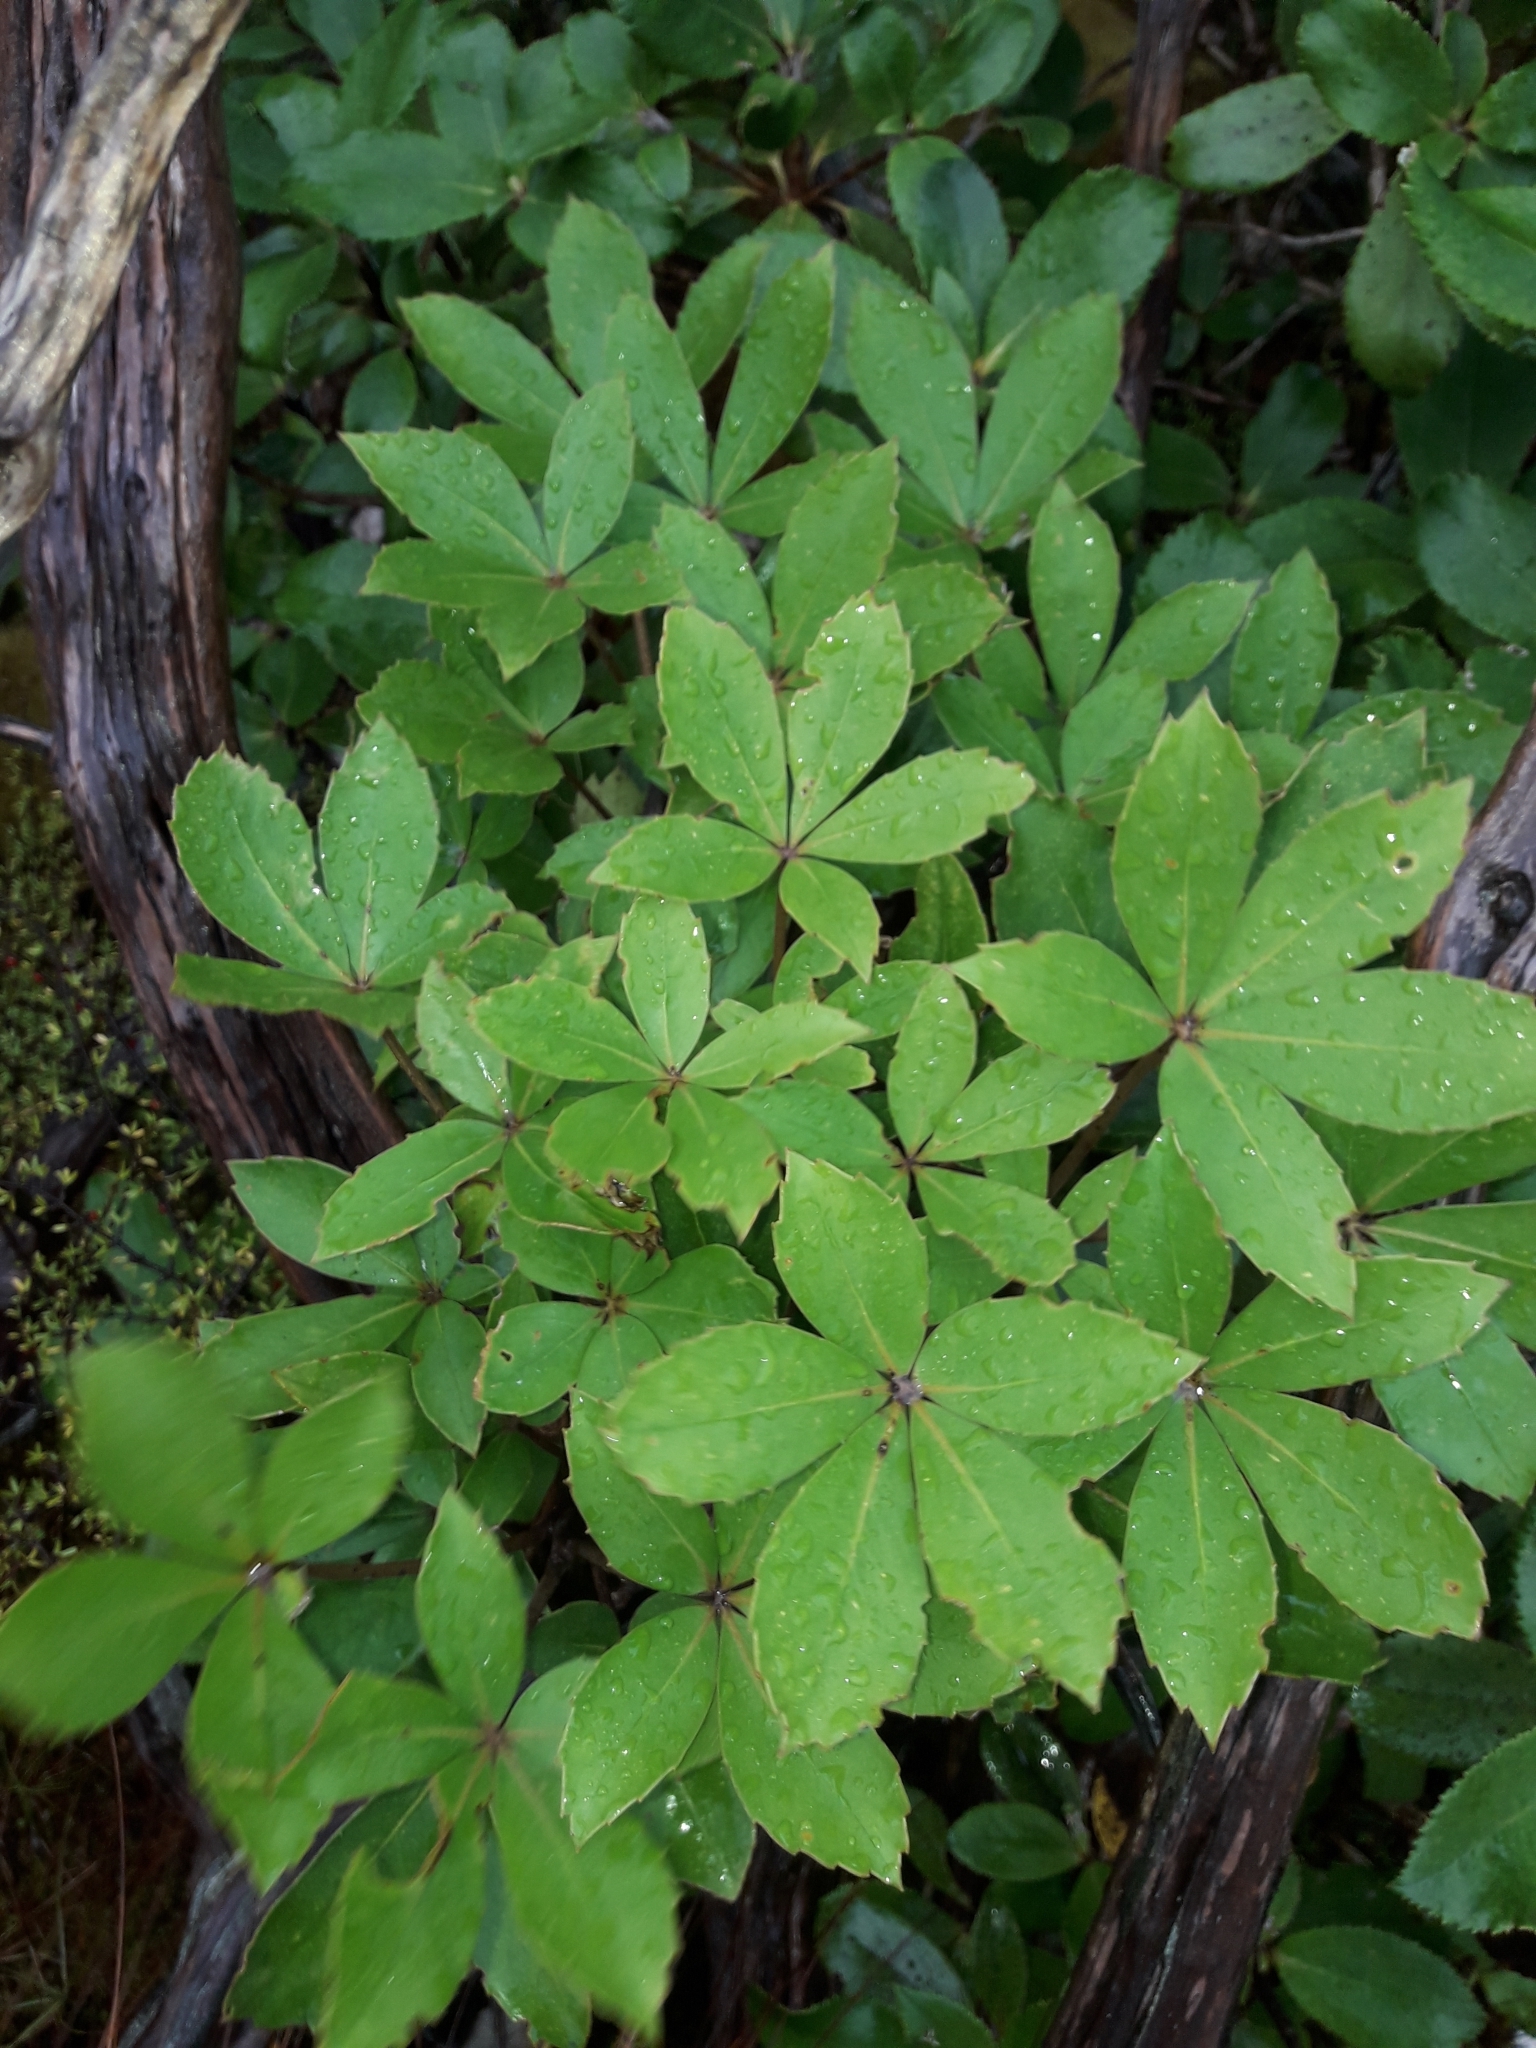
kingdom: Plantae
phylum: Tracheophyta
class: Magnoliopsida
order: Apiales
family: Araliaceae
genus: Neopanax
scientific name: Neopanax colensoi
